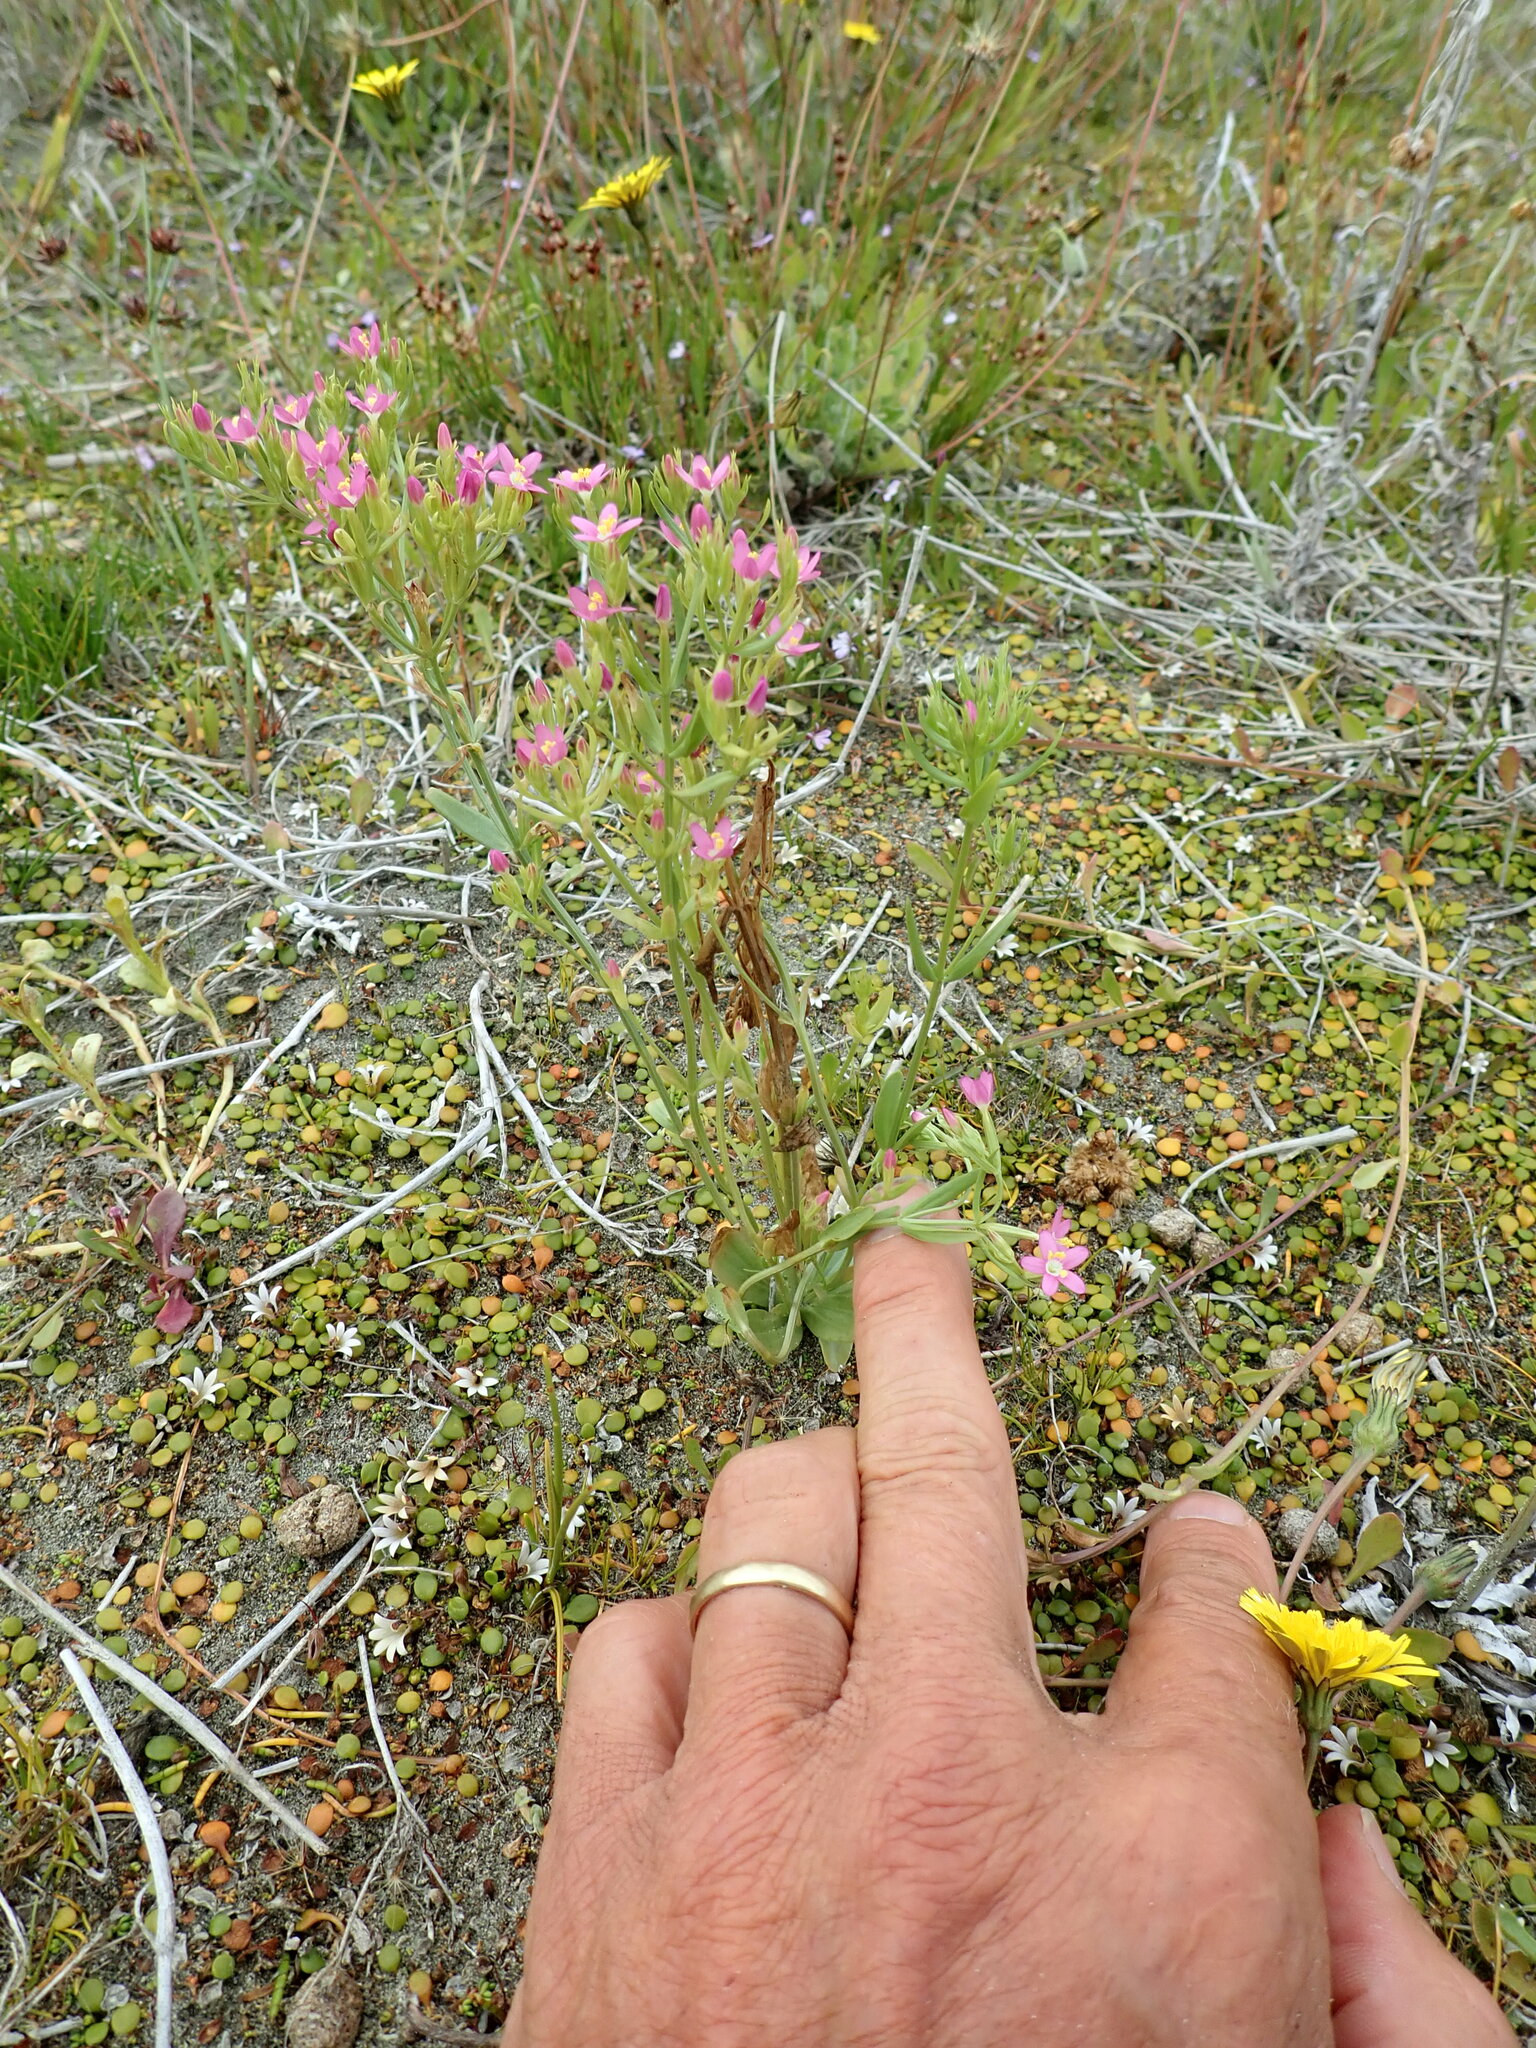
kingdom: Plantae
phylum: Tracheophyta
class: Magnoliopsida
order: Gentianales
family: Gentianaceae
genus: Centaurium
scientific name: Centaurium erythraea
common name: Common centaury
